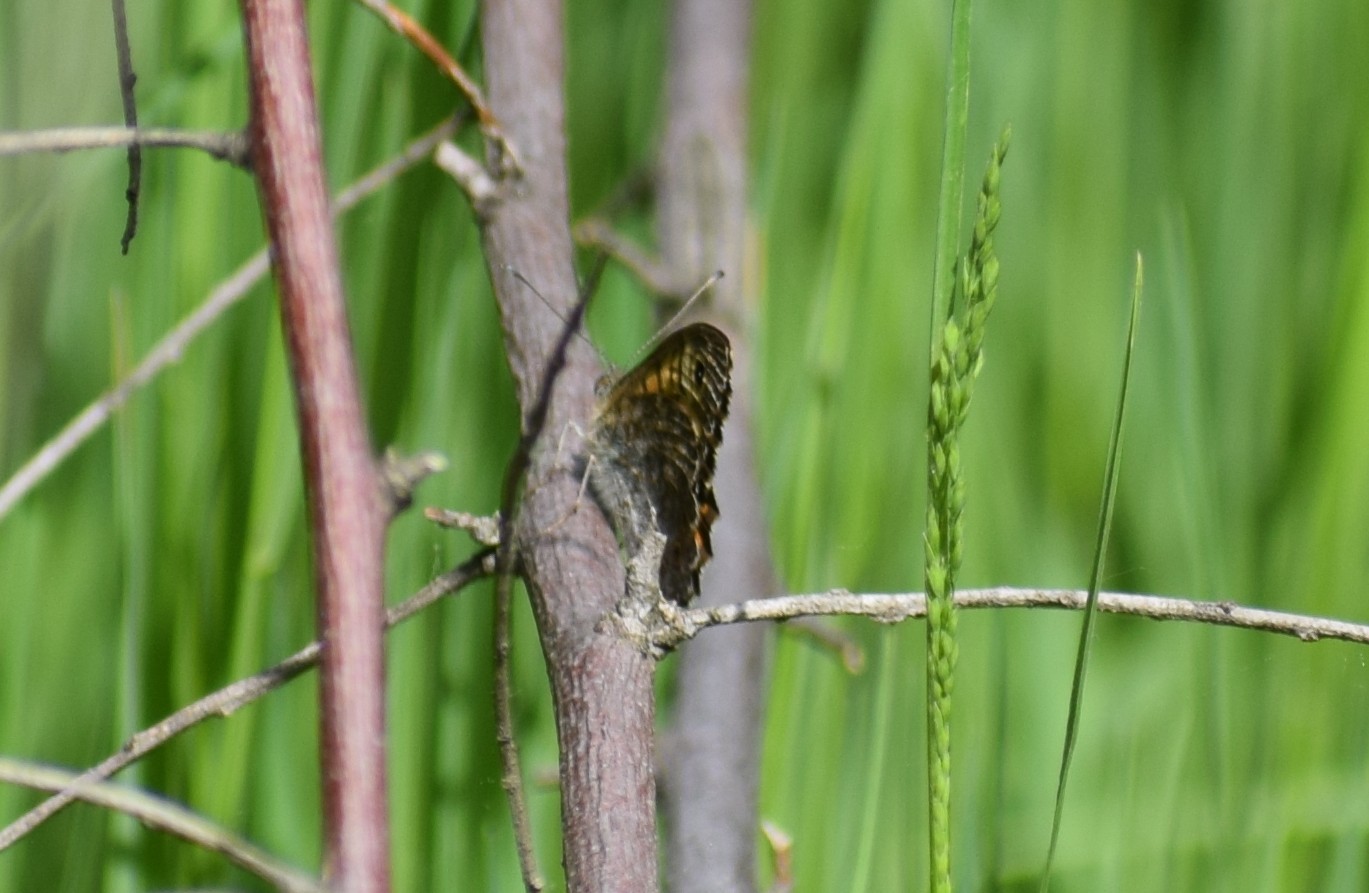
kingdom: Animalia
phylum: Arthropoda
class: Insecta
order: Lepidoptera
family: Nymphalidae
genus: Pararge
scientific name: Pararge Lasiommata megera
